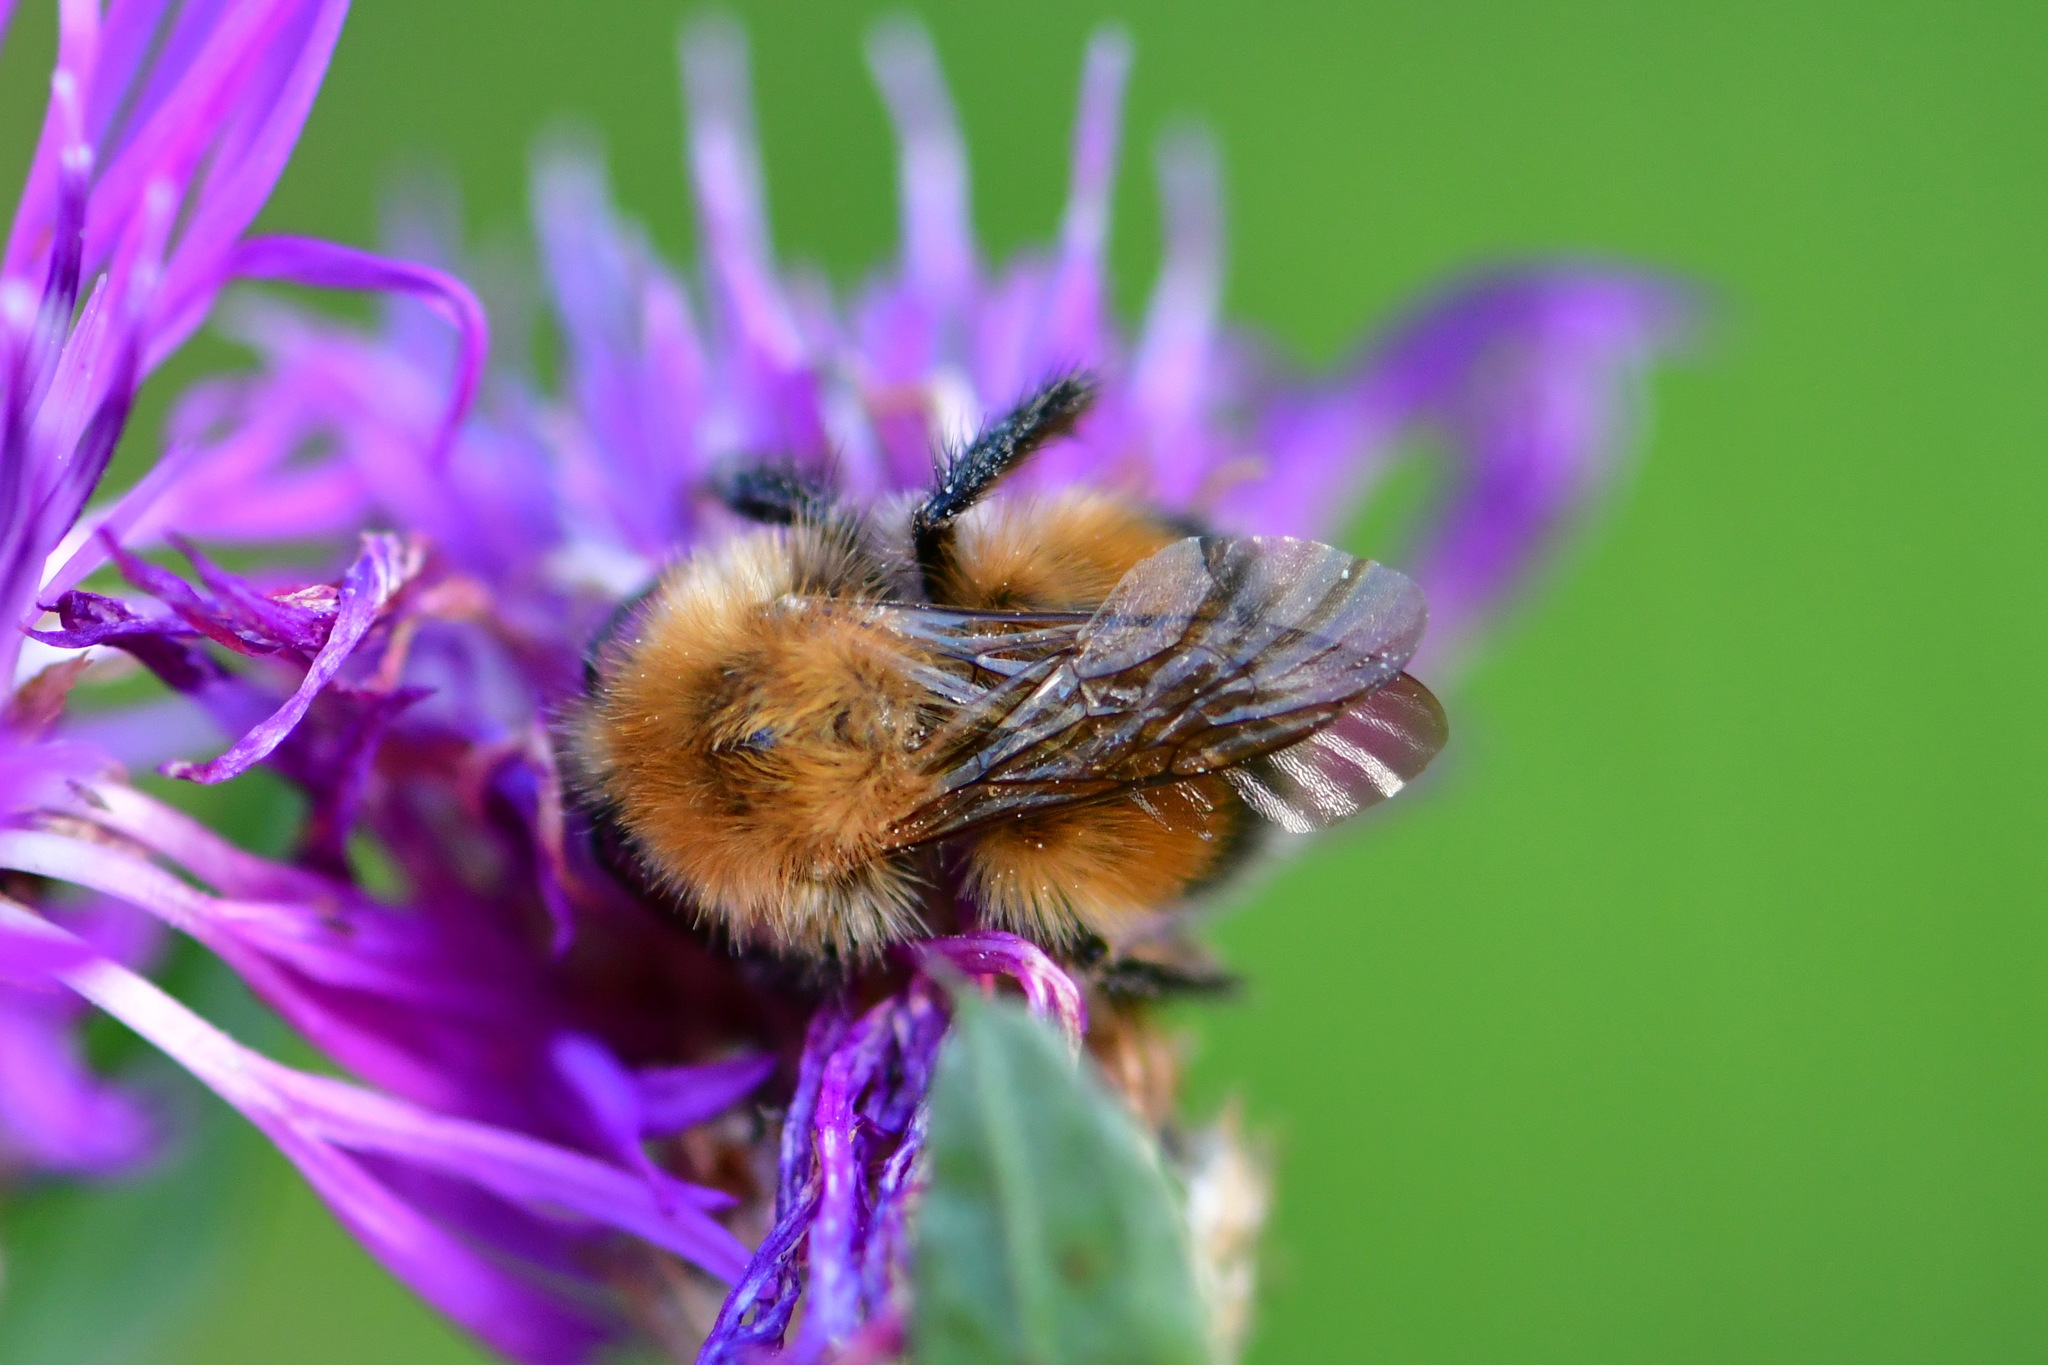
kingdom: Animalia
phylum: Arthropoda
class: Insecta
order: Hymenoptera
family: Apidae
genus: Bombus
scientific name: Bombus hypnorum
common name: New garden bumblebee
